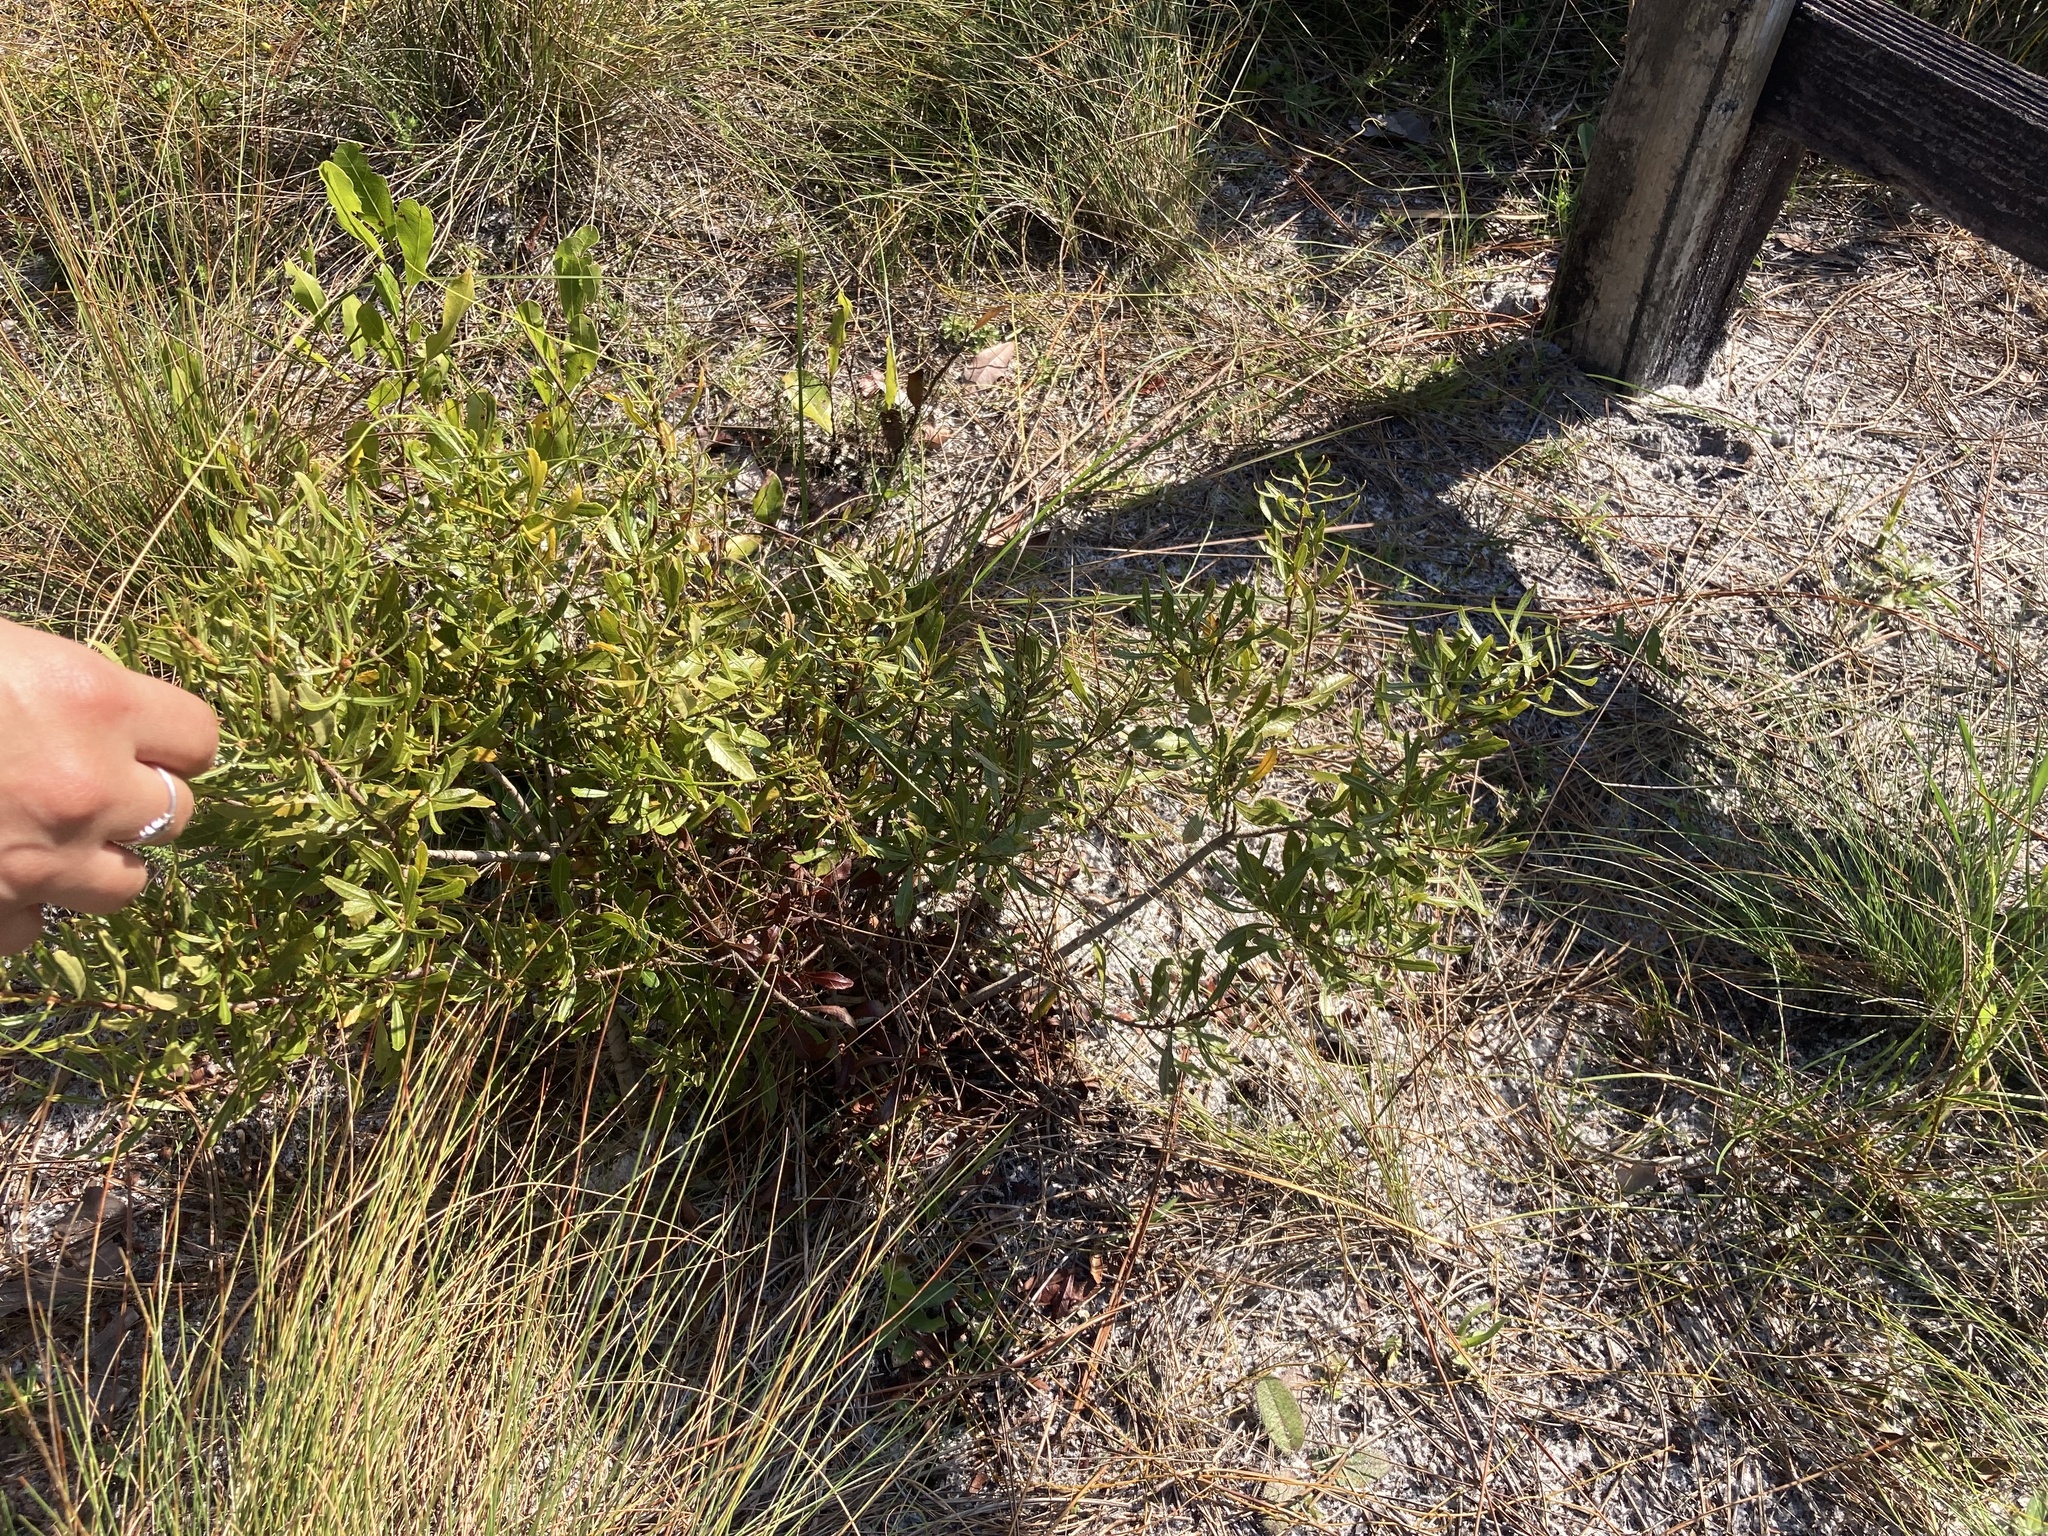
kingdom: Plantae
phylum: Tracheophyta
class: Magnoliopsida
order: Fagales
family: Myricaceae
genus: Morella
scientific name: Morella cerifera
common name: Wax myrtle
